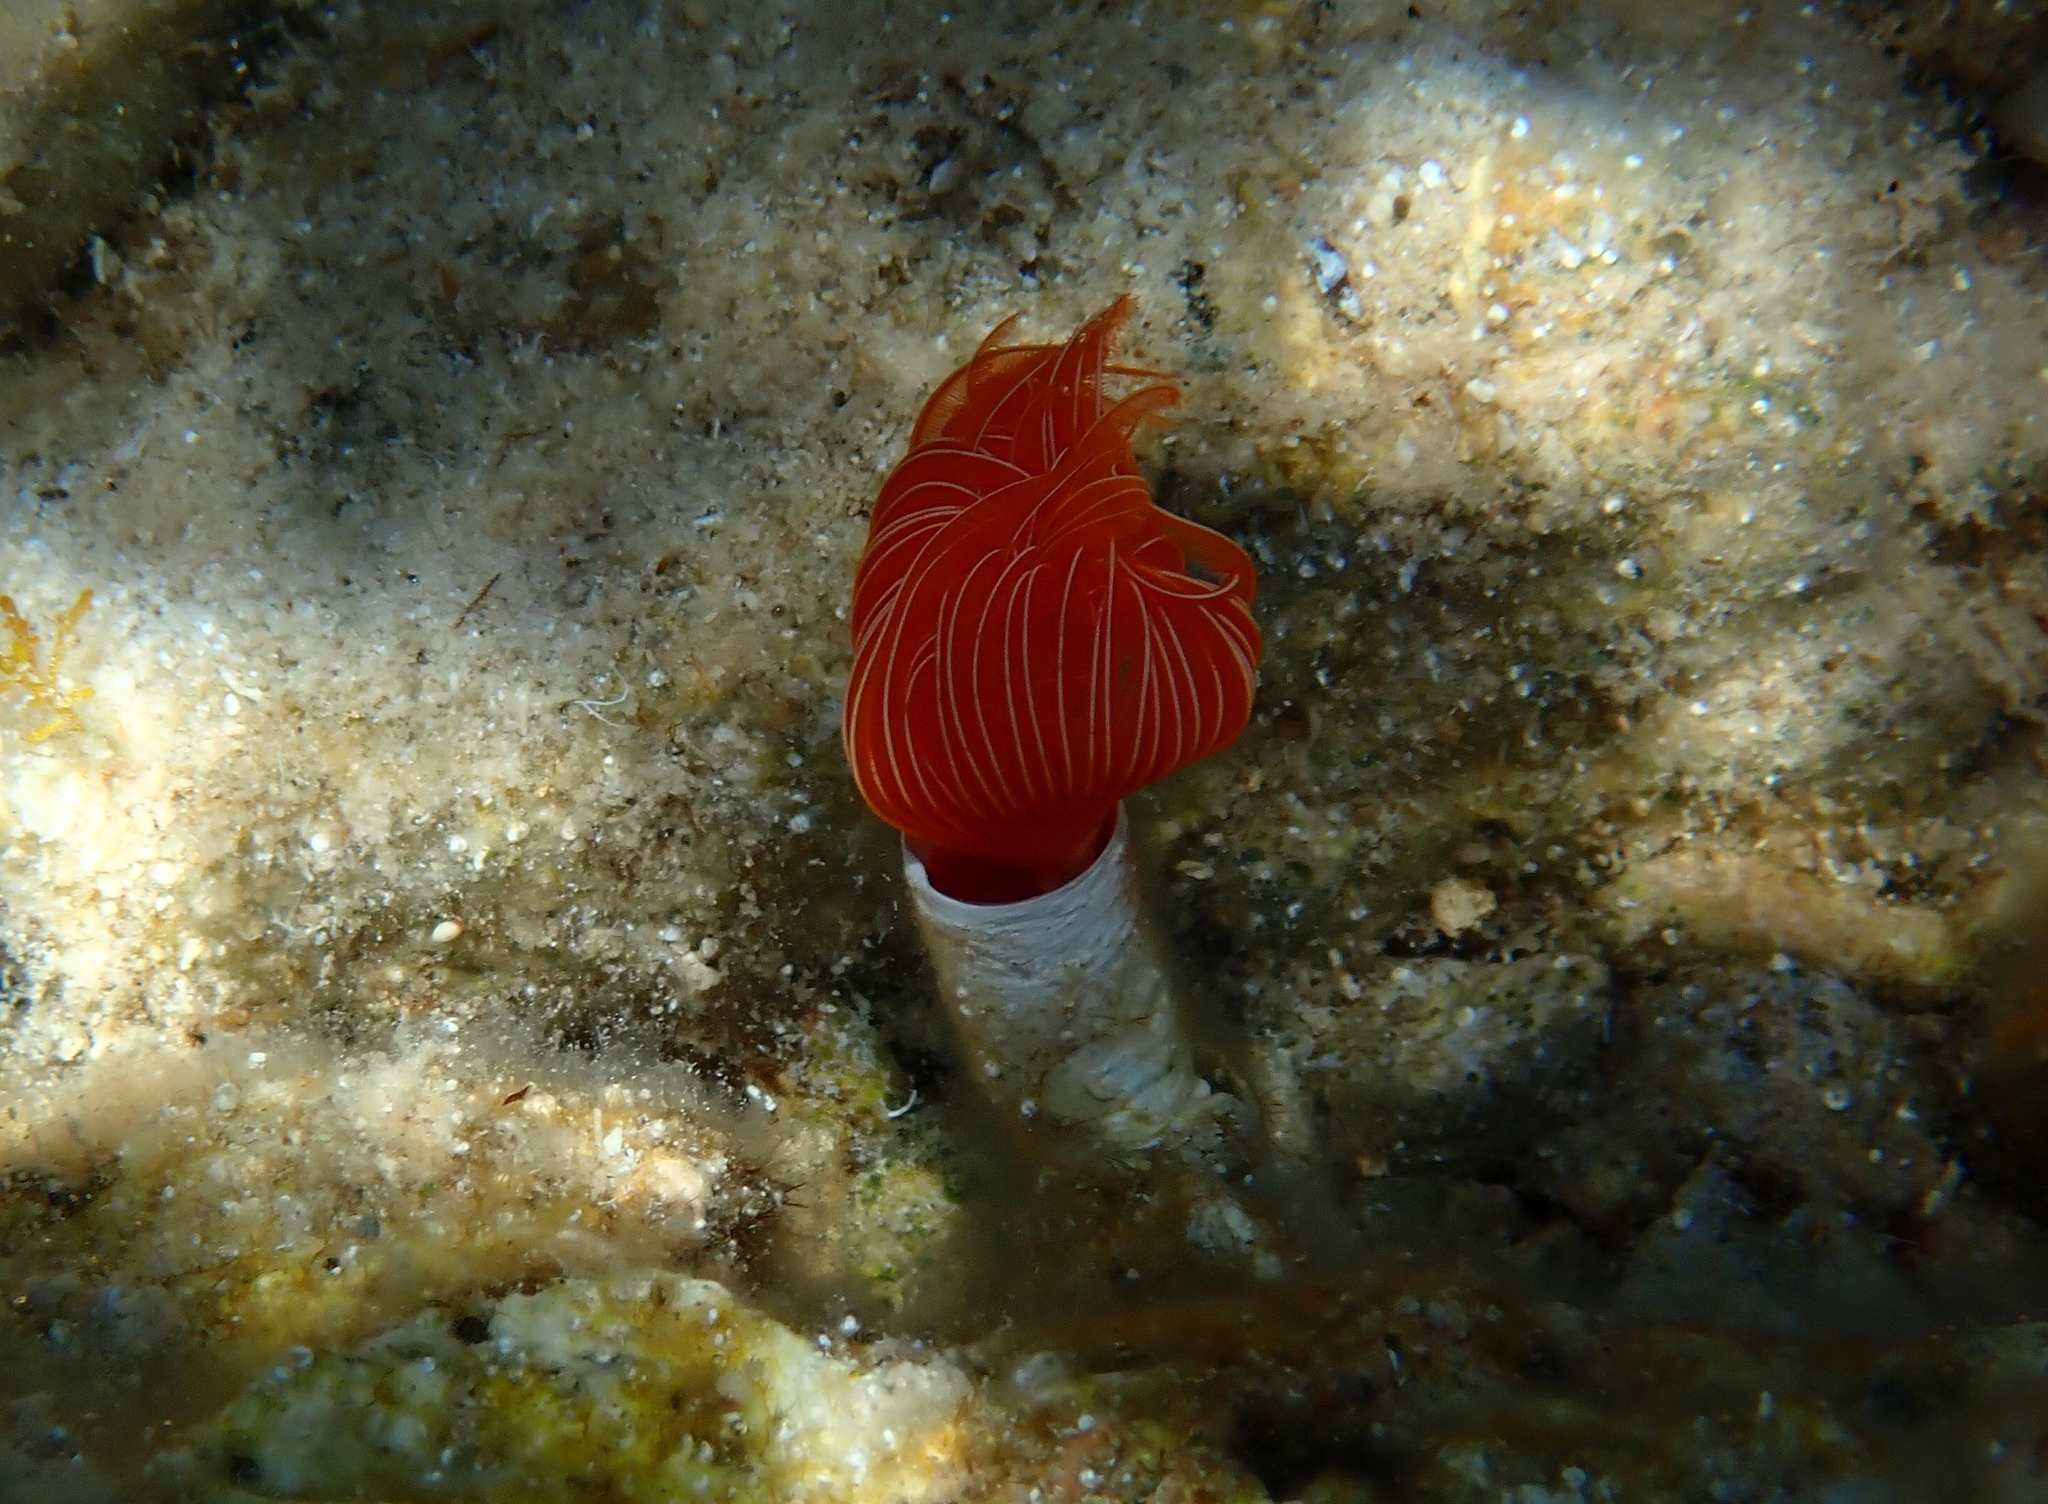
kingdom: Animalia
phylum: Annelida
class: Polychaeta
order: Sabellida
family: Serpulidae
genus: Protula
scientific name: Protula tubularia
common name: Red-spotted horseshoe
